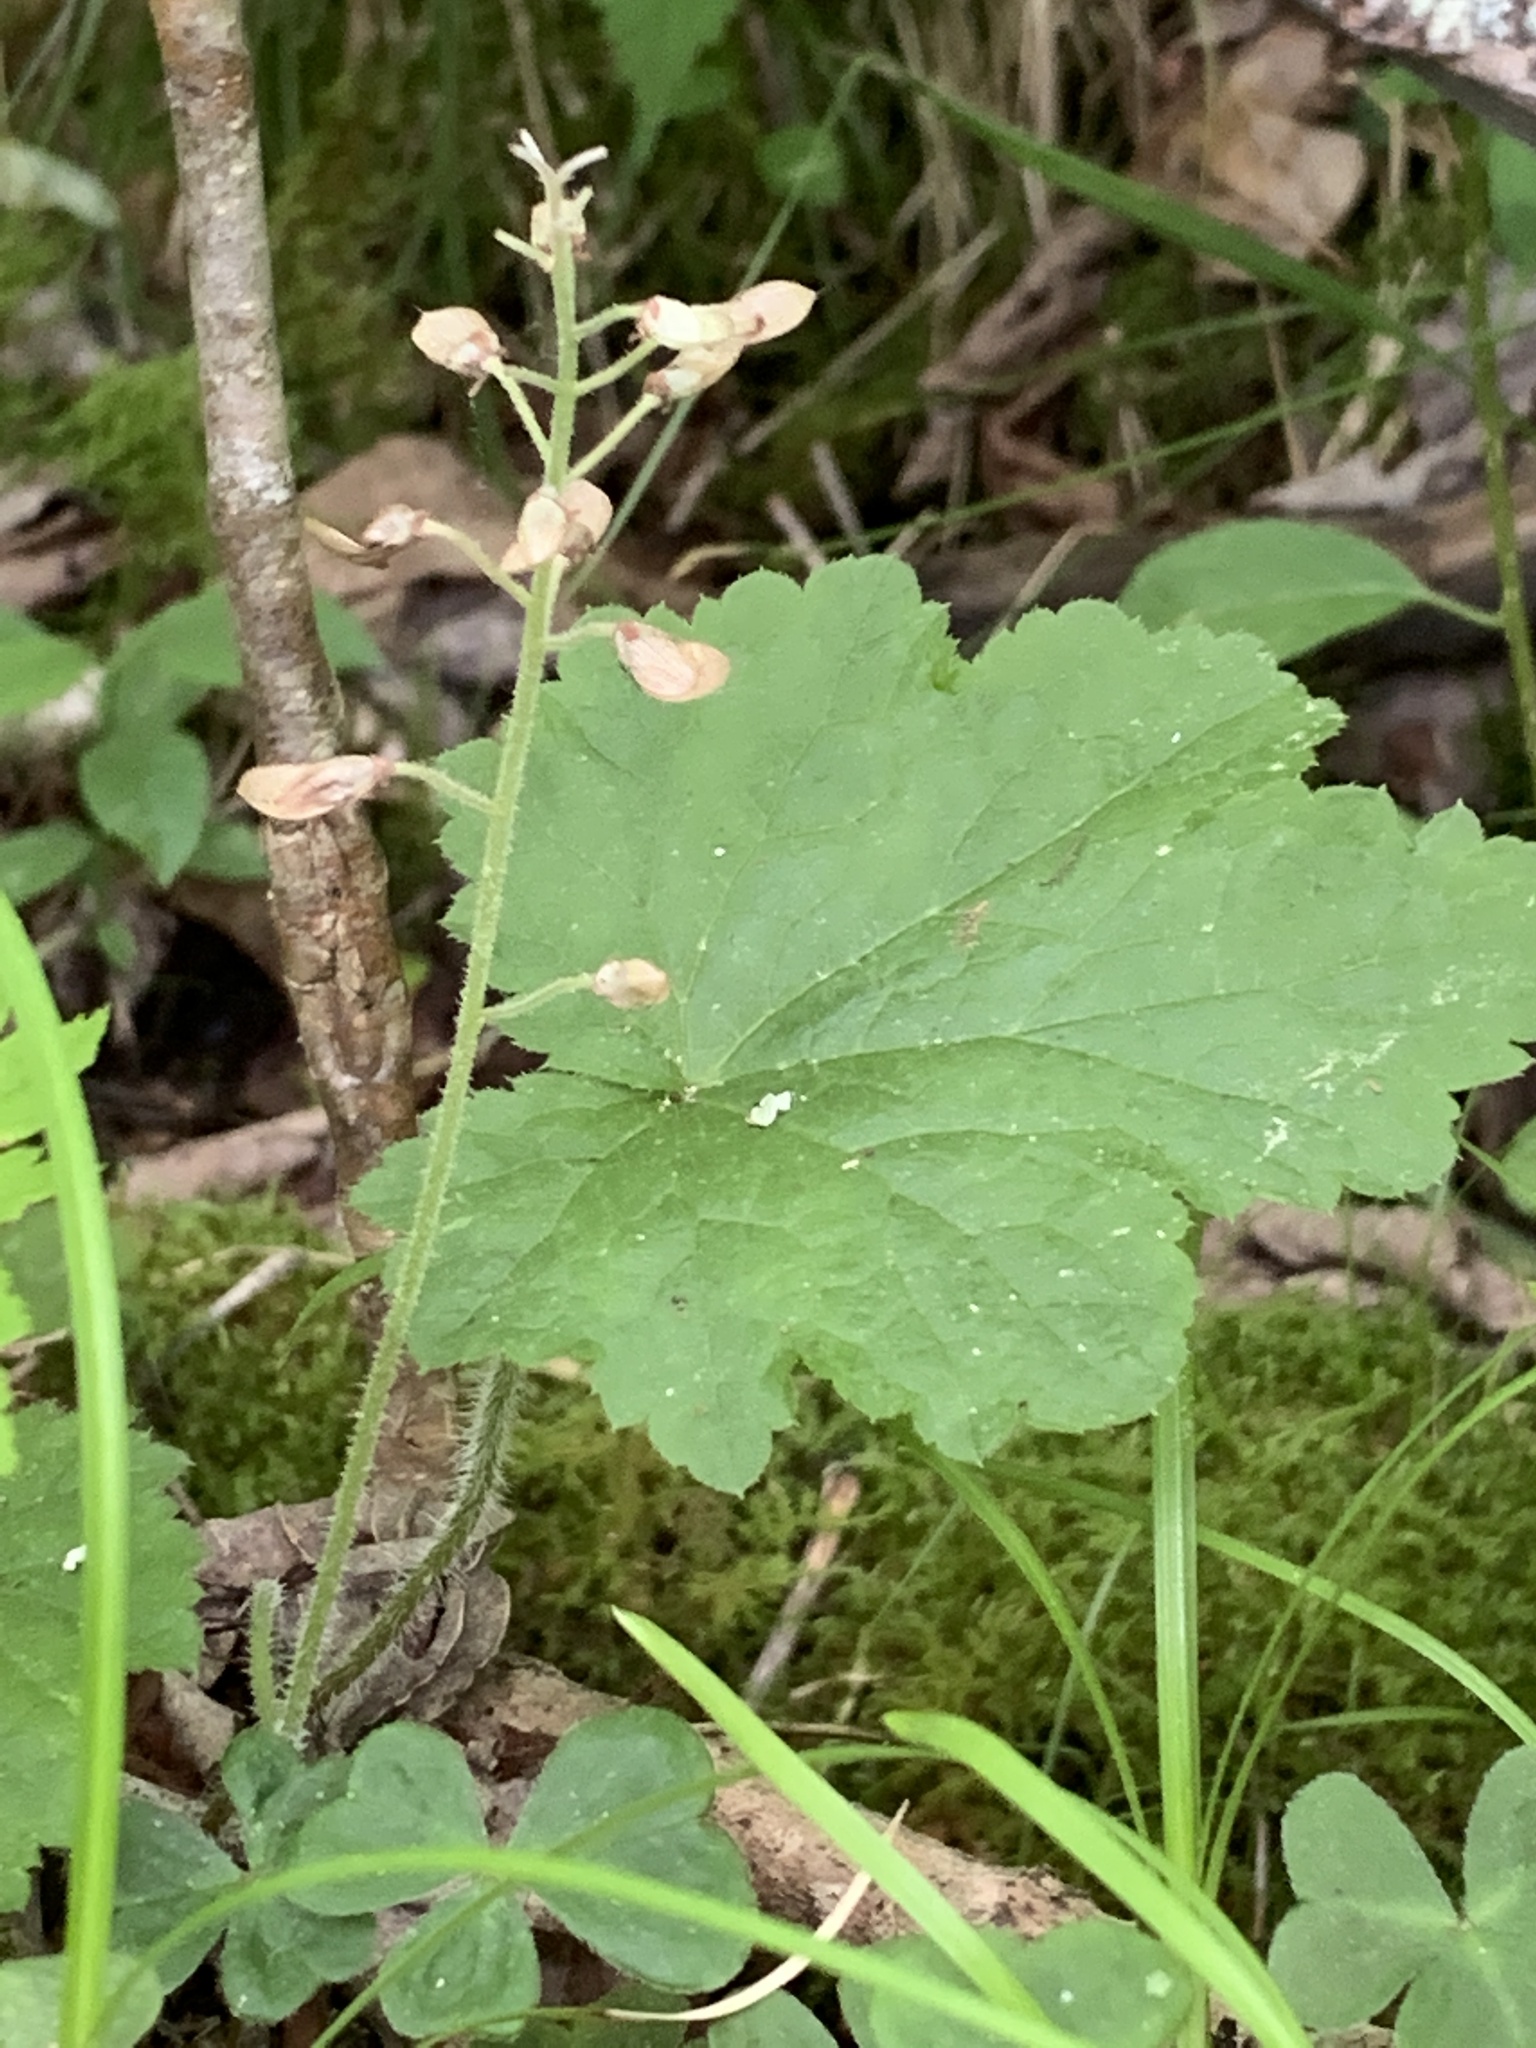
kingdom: Plantae
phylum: Tracheophyta
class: Magnoliopsida
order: Saxifragales
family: Saxifragaceae
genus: Tiarella
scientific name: Tiarella stolonifera
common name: Stoloniferous foamflower
